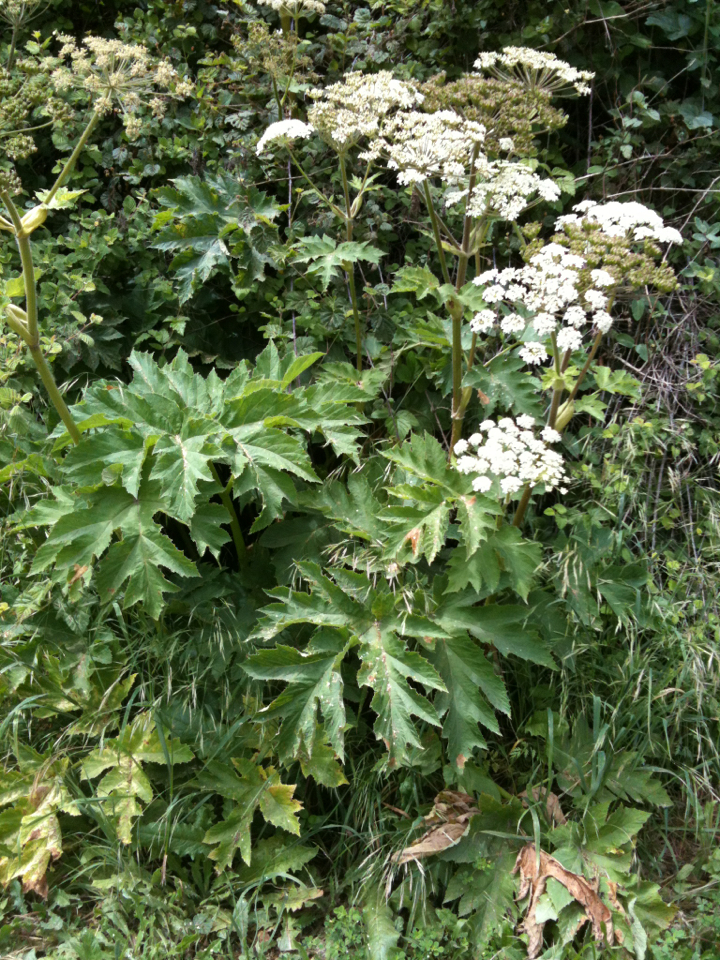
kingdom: Plantae
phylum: Tracheophyta
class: Magnoliopsida
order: Apiales
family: Apiaceae
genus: Heracleum
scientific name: Heracleum maximum
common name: American cow parsnip
